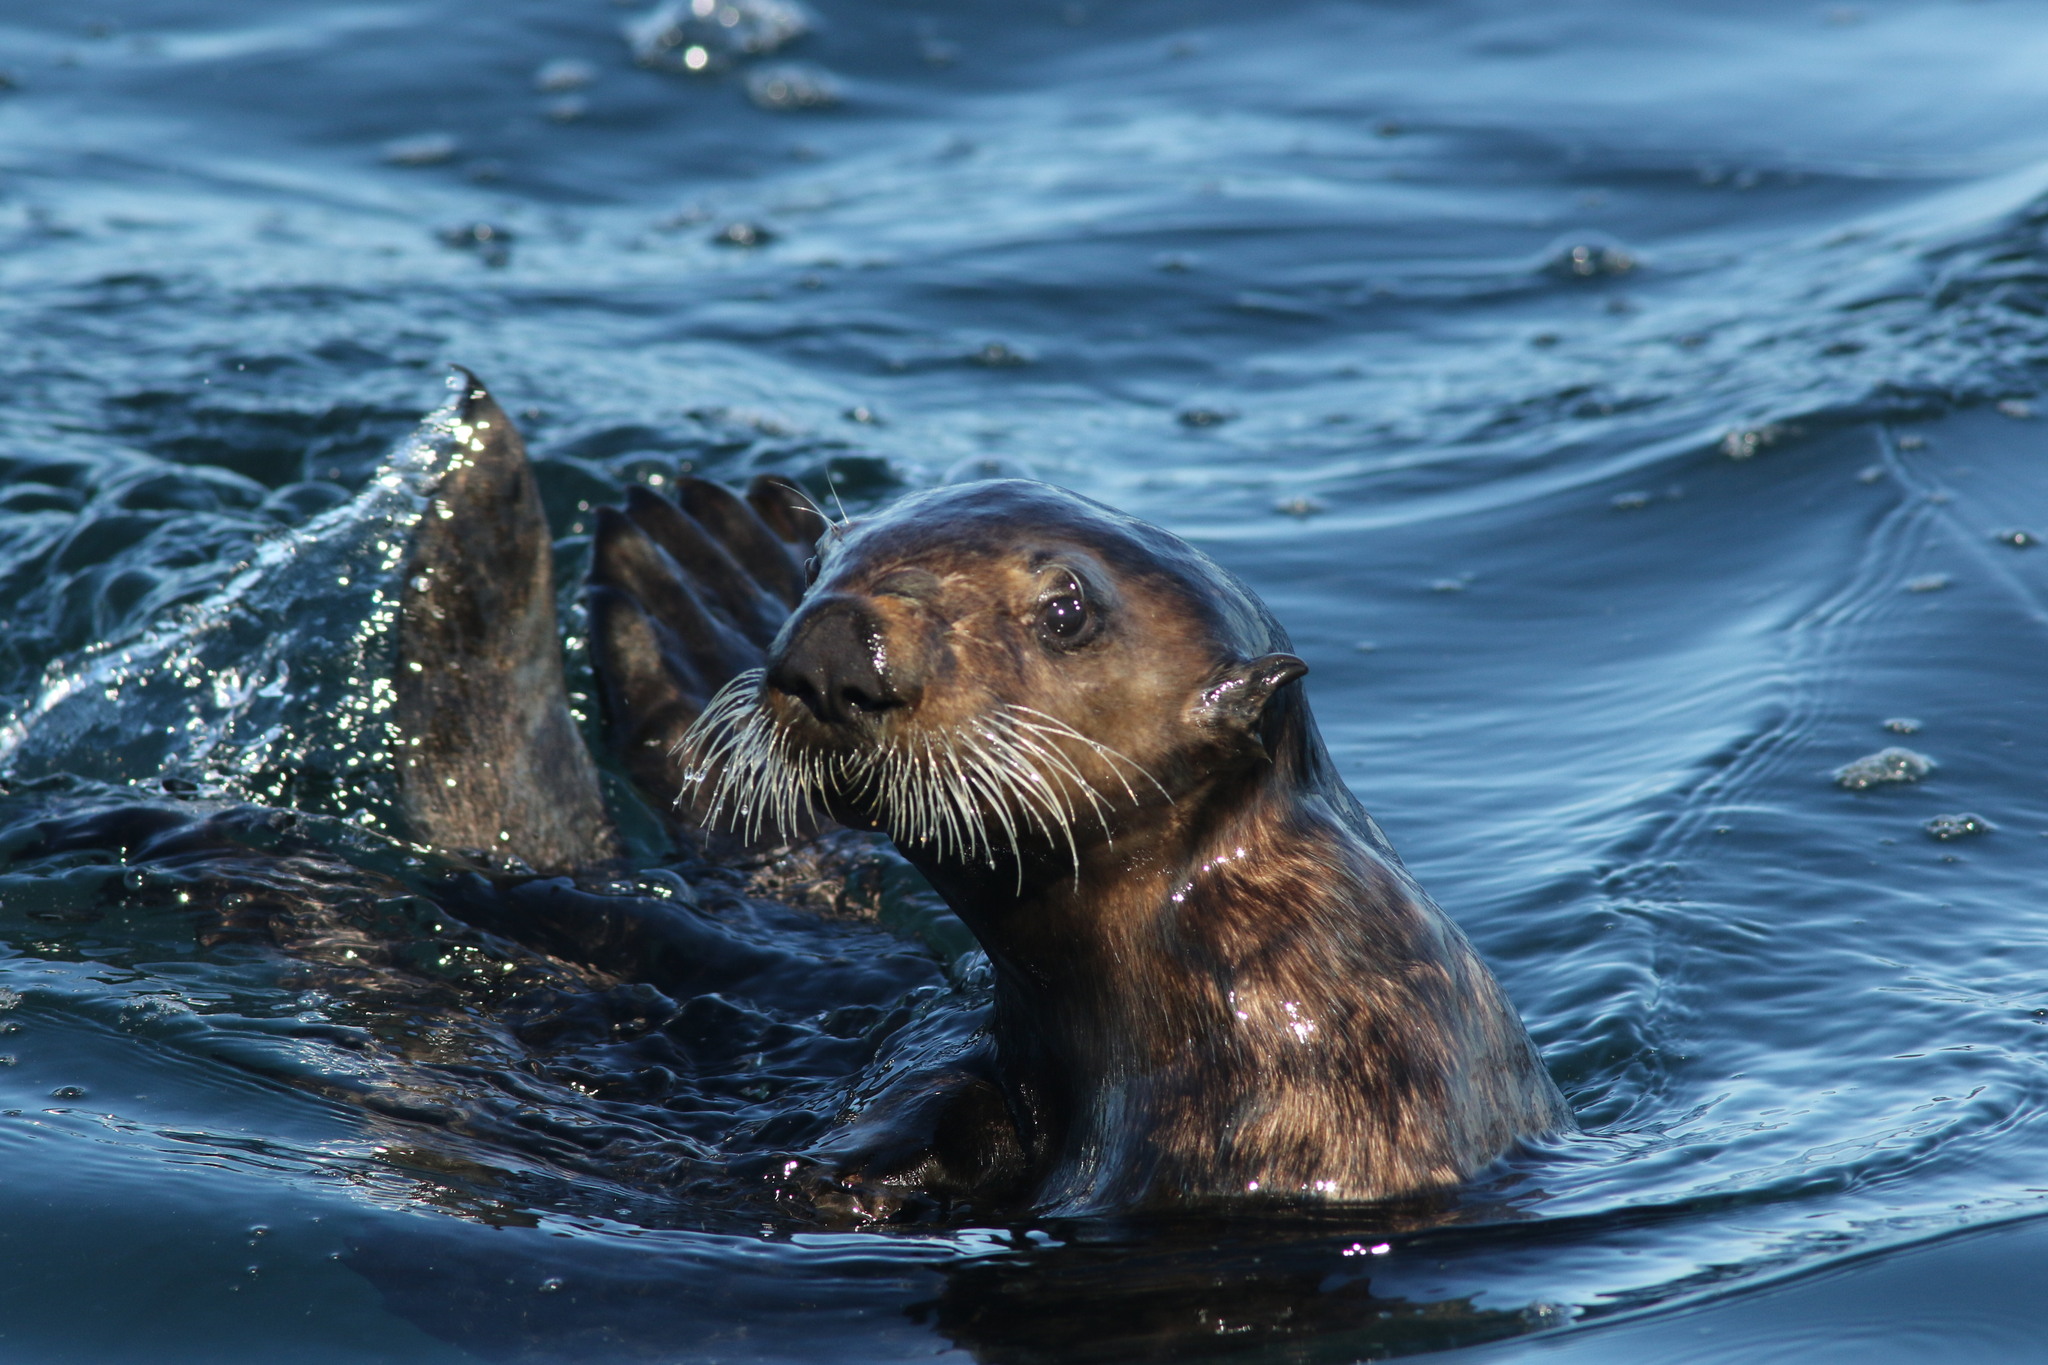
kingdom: Animalia
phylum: Chordata
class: Mammalia
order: Carnivora
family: Mustelidae
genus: Enhydra
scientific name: Enhydra lutris
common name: Sea otter
